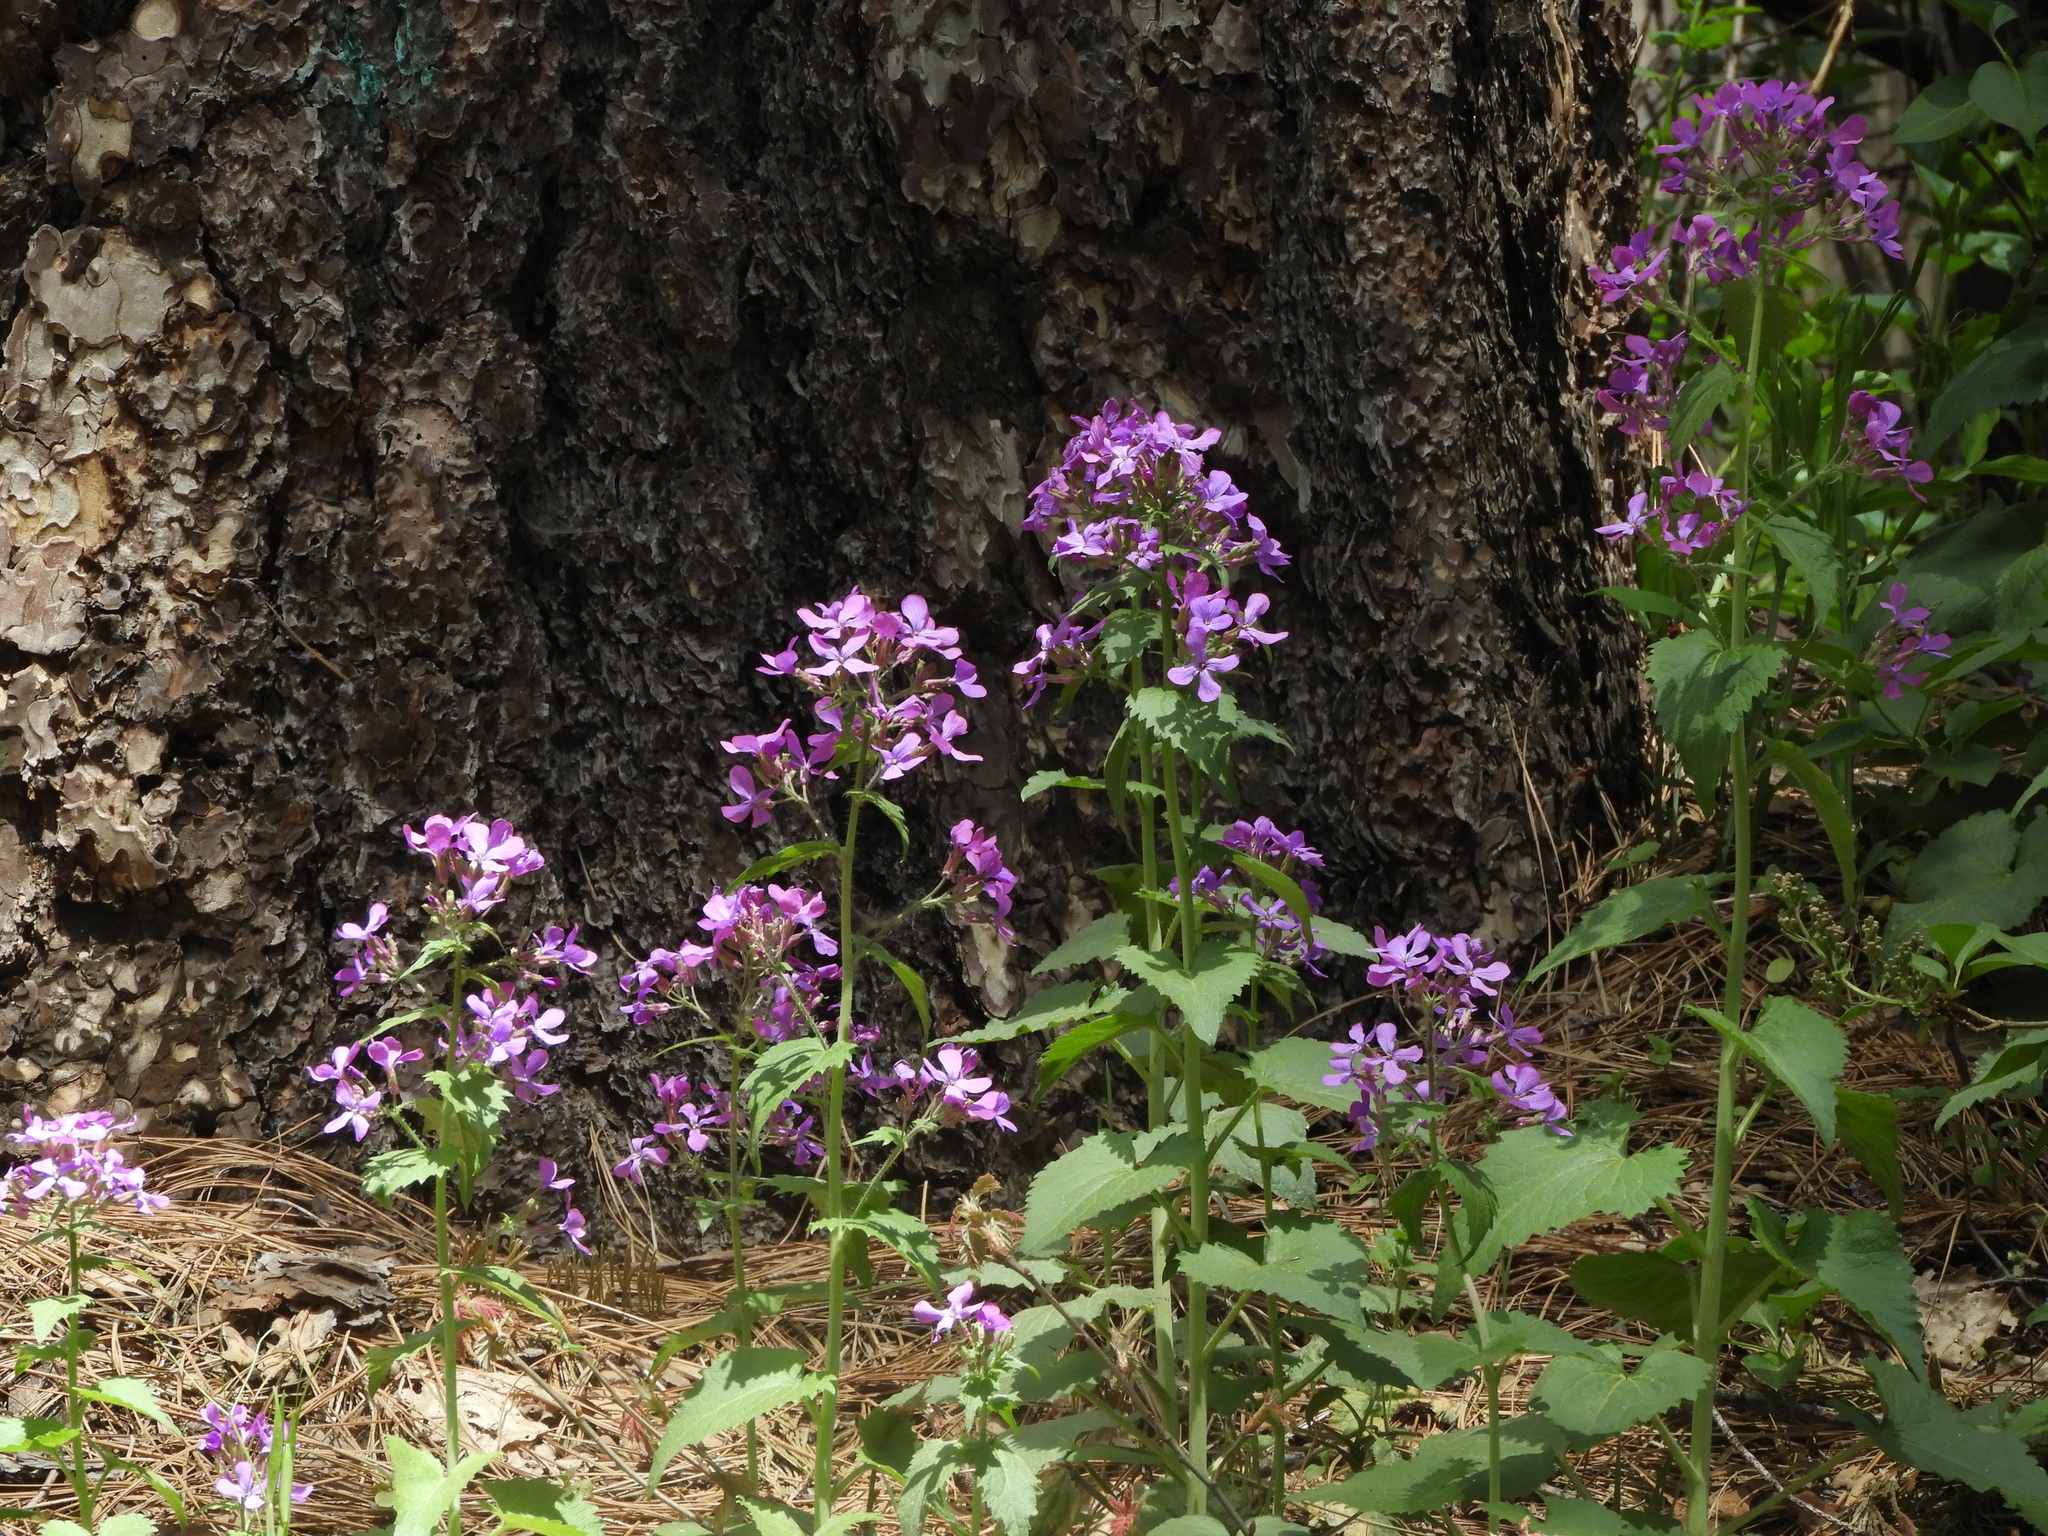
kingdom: Plantae
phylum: Tracheophyta
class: Magnoliopsida
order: Brassicales
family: Brassicaceae
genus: Lunaria
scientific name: Lunaria annua
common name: Honesty
